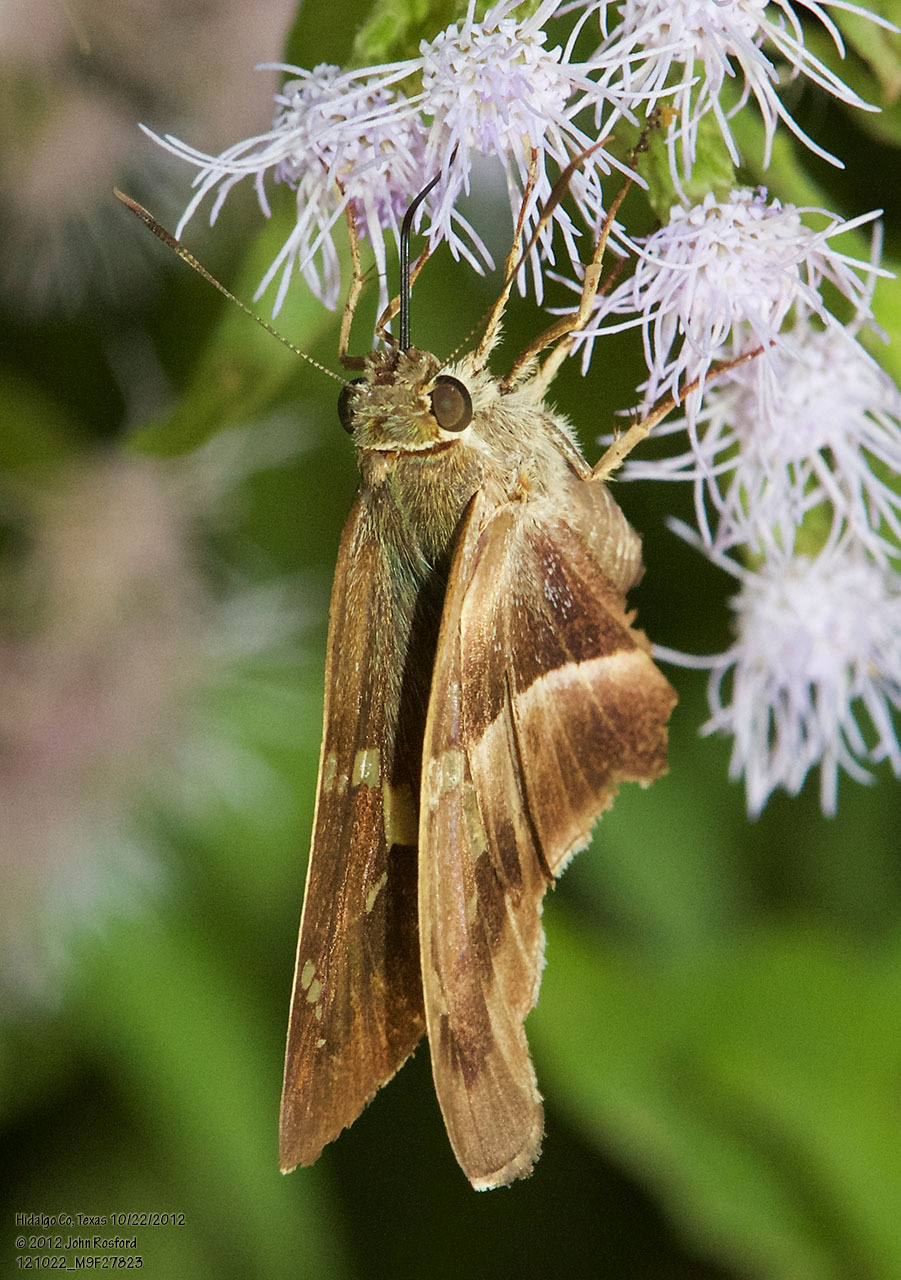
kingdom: Animalia
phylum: Arthropoda
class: Insecta
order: Lepidoptera
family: Hesperiidae
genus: Aguna
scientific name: Aguna metophis
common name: Tailed aguna
